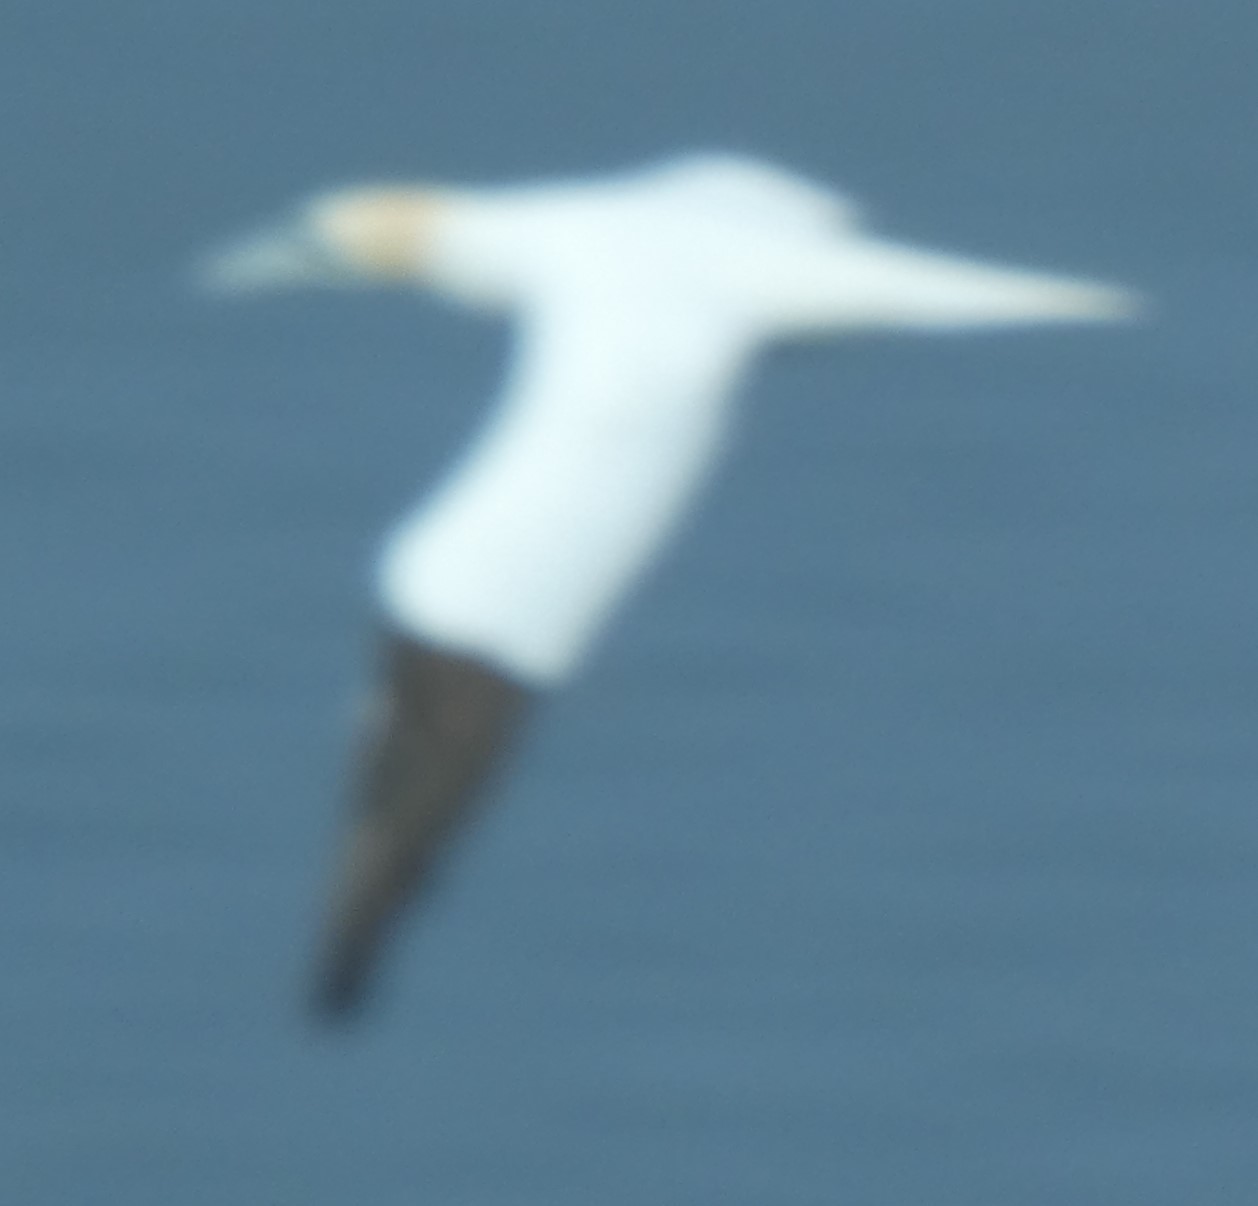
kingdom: Animalia
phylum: Chordata
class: Aves
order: Suliformes
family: Sulidae
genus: Morus
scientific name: Morus bassanus
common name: Northern gannet
